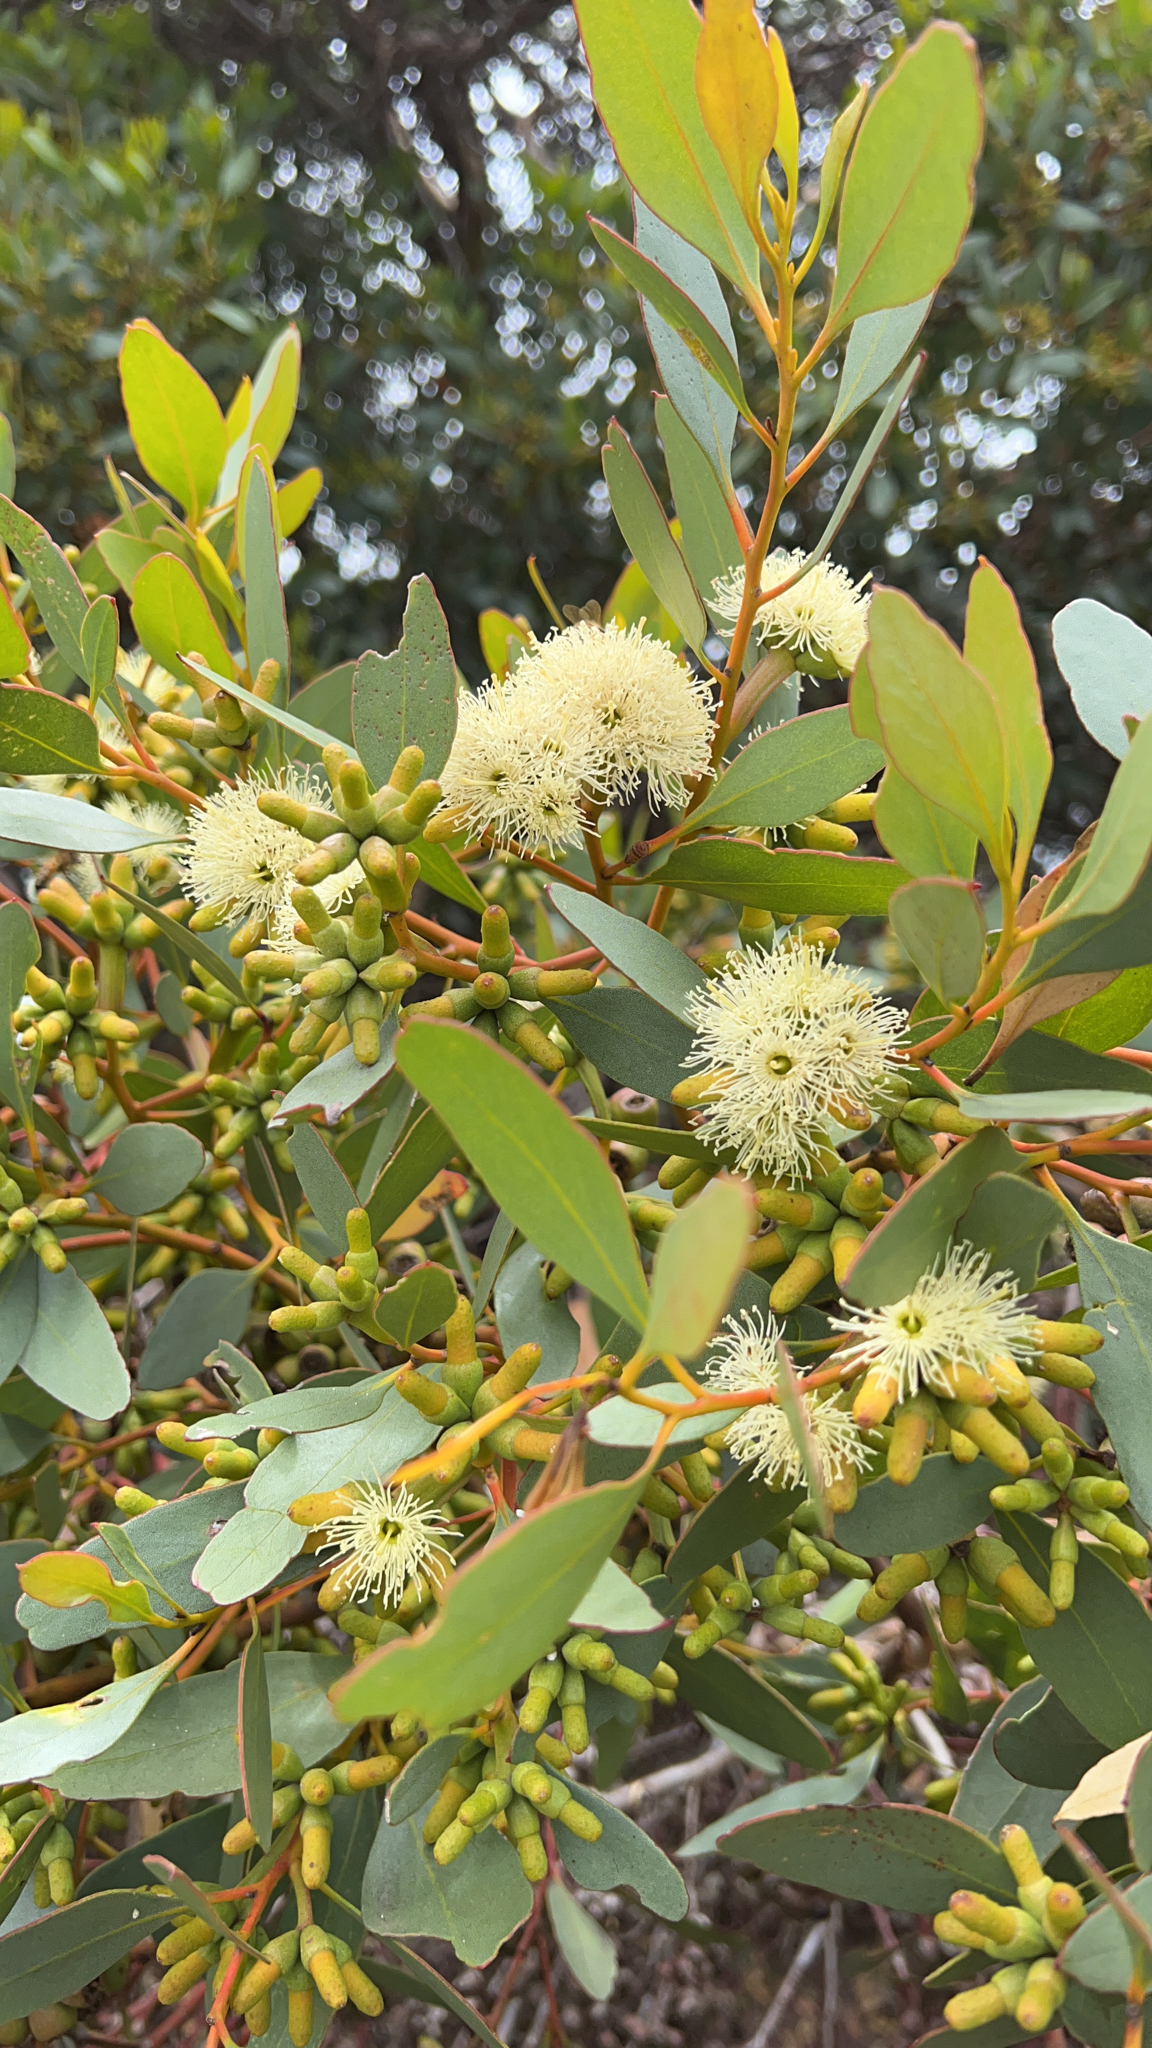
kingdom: Plantae
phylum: Tracheophyta
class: Magnoliopsida
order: Myrtales
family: Myrtaceae
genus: Eucalyptus
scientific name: Eucalyptus utilis
